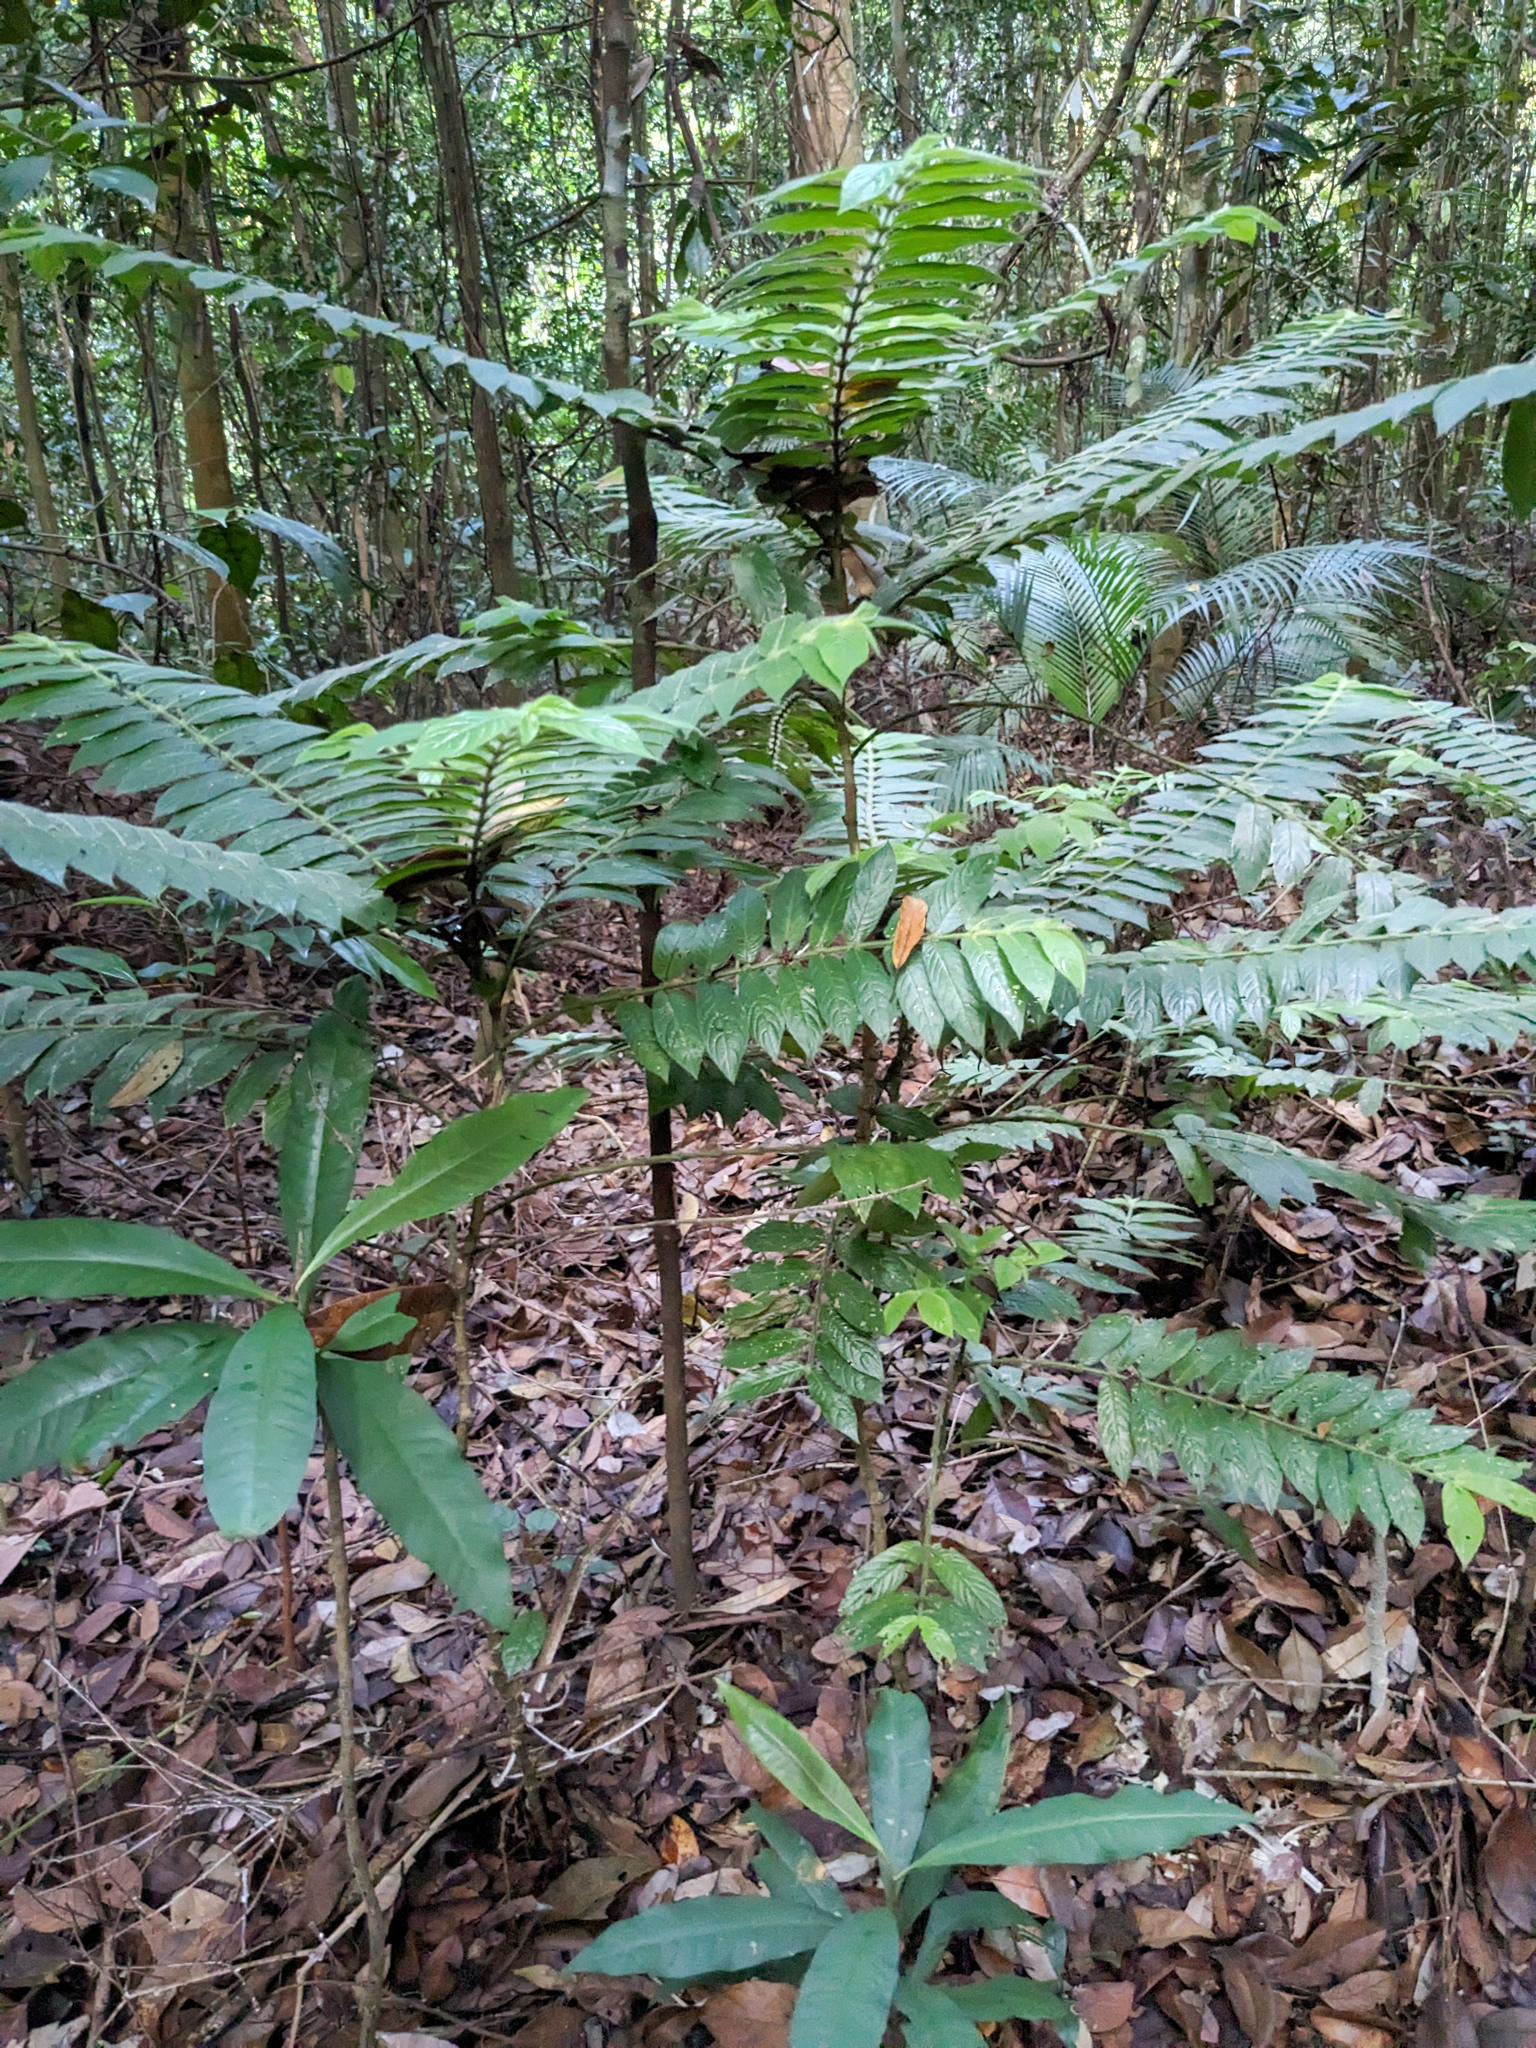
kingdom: Plantae
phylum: Tracheophyta
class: Magnoliopsida
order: Gentianales
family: Rubiaceae
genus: Lasianthus
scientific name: Lasianthus attenuatus
